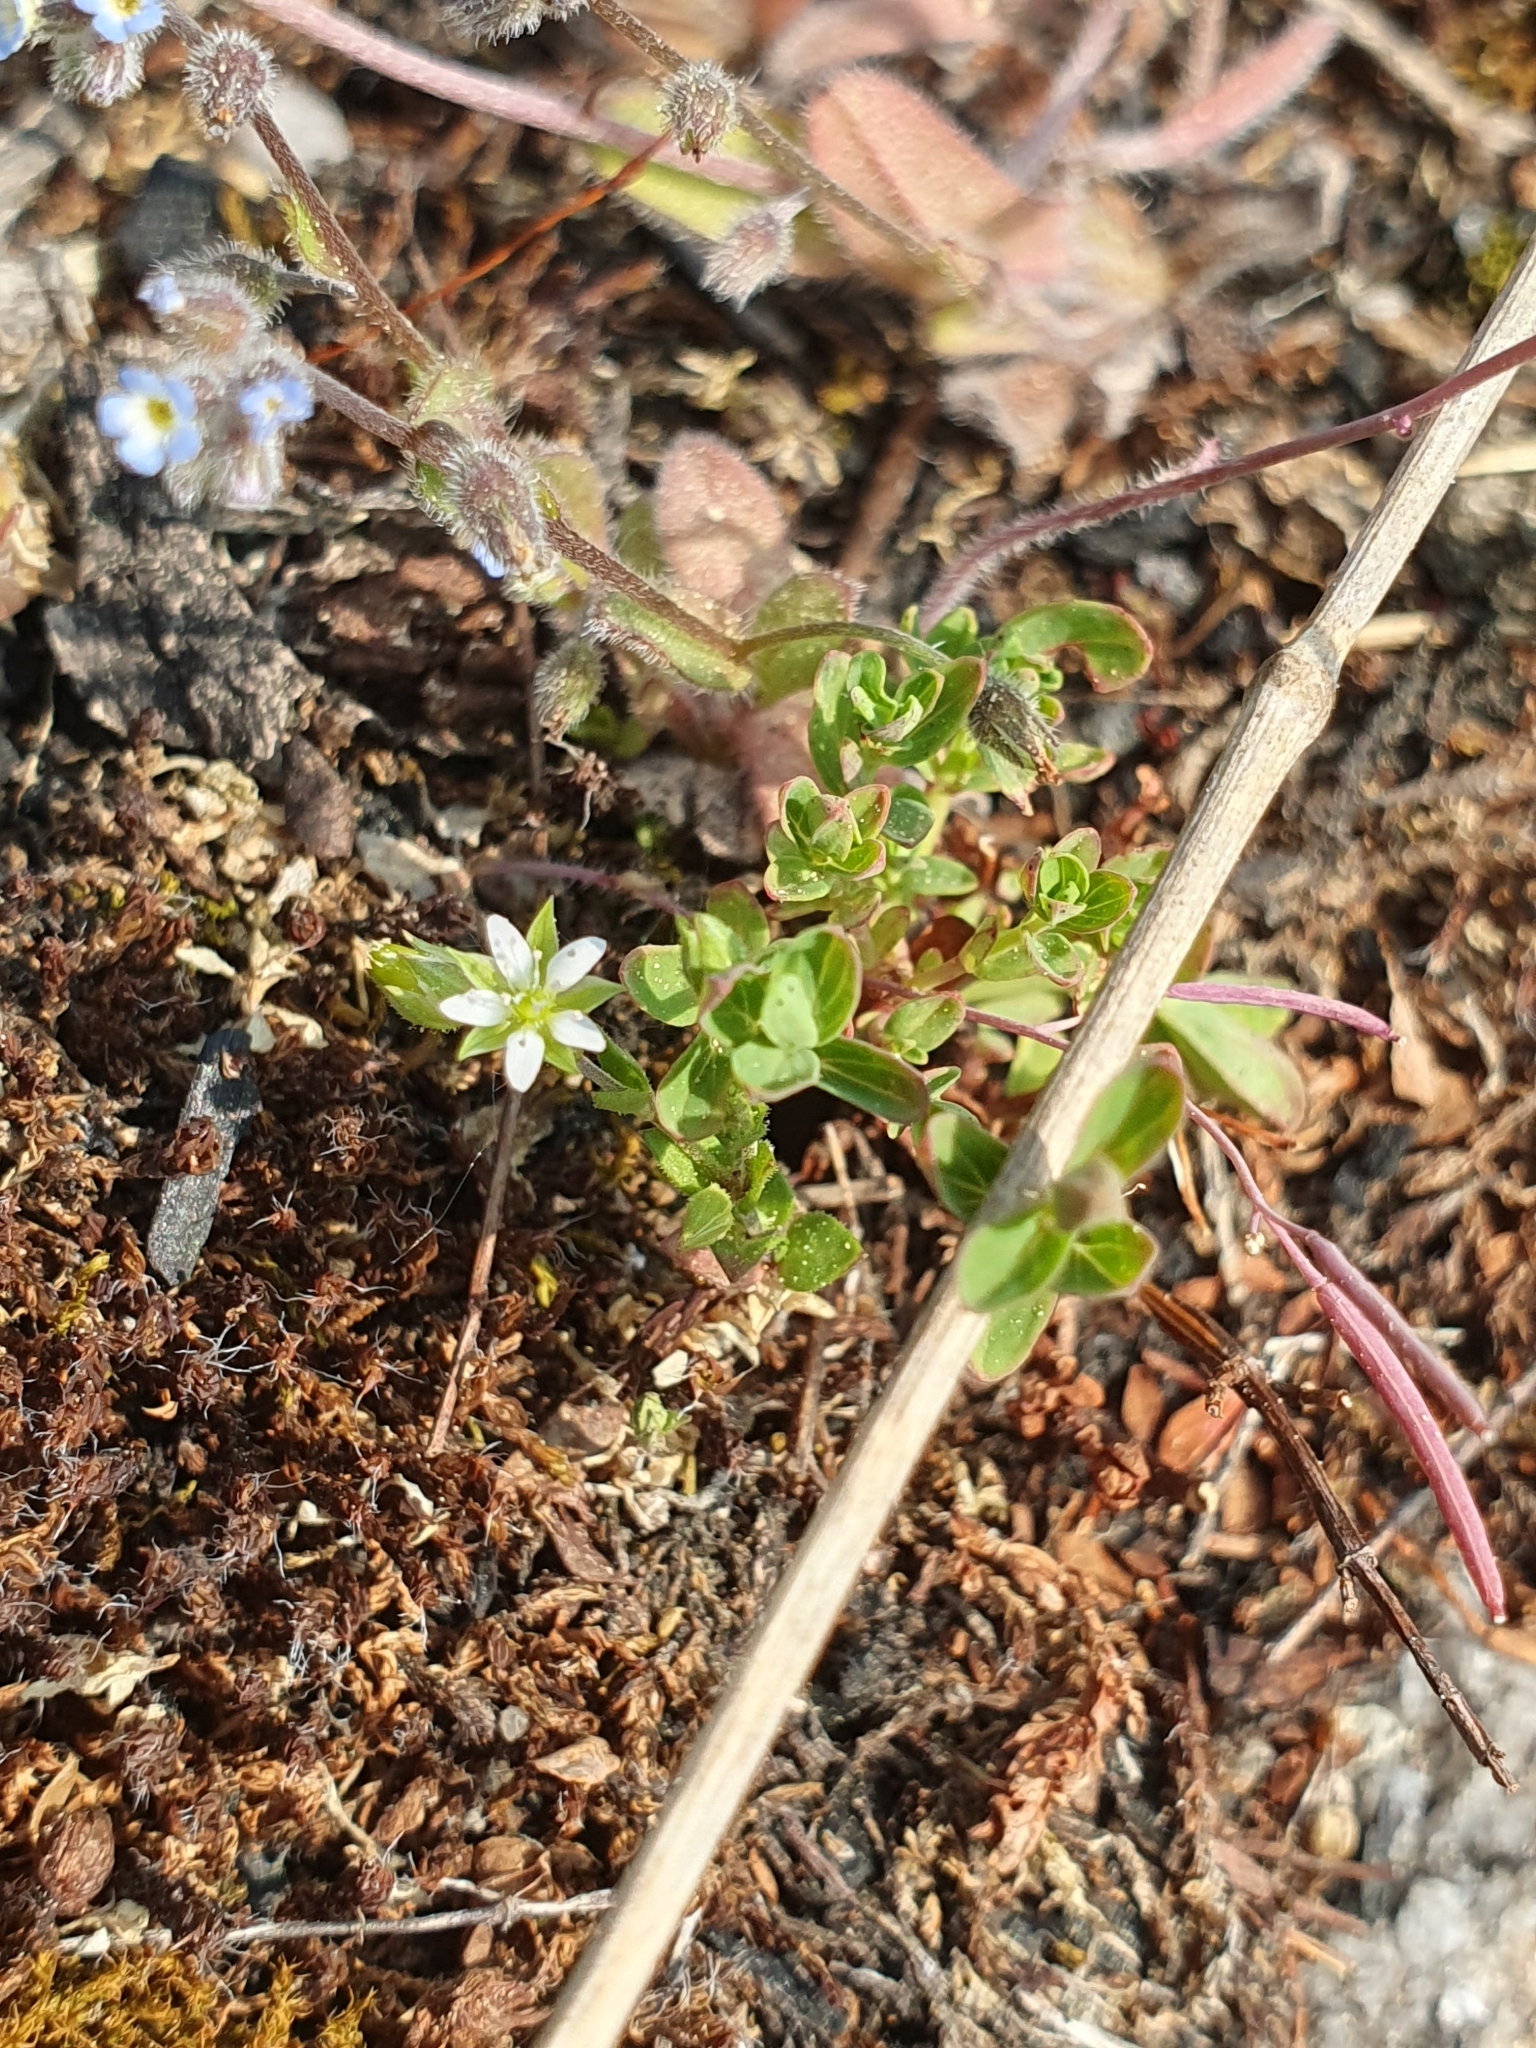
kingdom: Plantae
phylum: Tracheophyta
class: Magnoliopsida
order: Caryophyllales
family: Caryophyllaceae
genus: Arenaria
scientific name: Arenaria serpyllifolia
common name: Thyme-leaved sandwort
